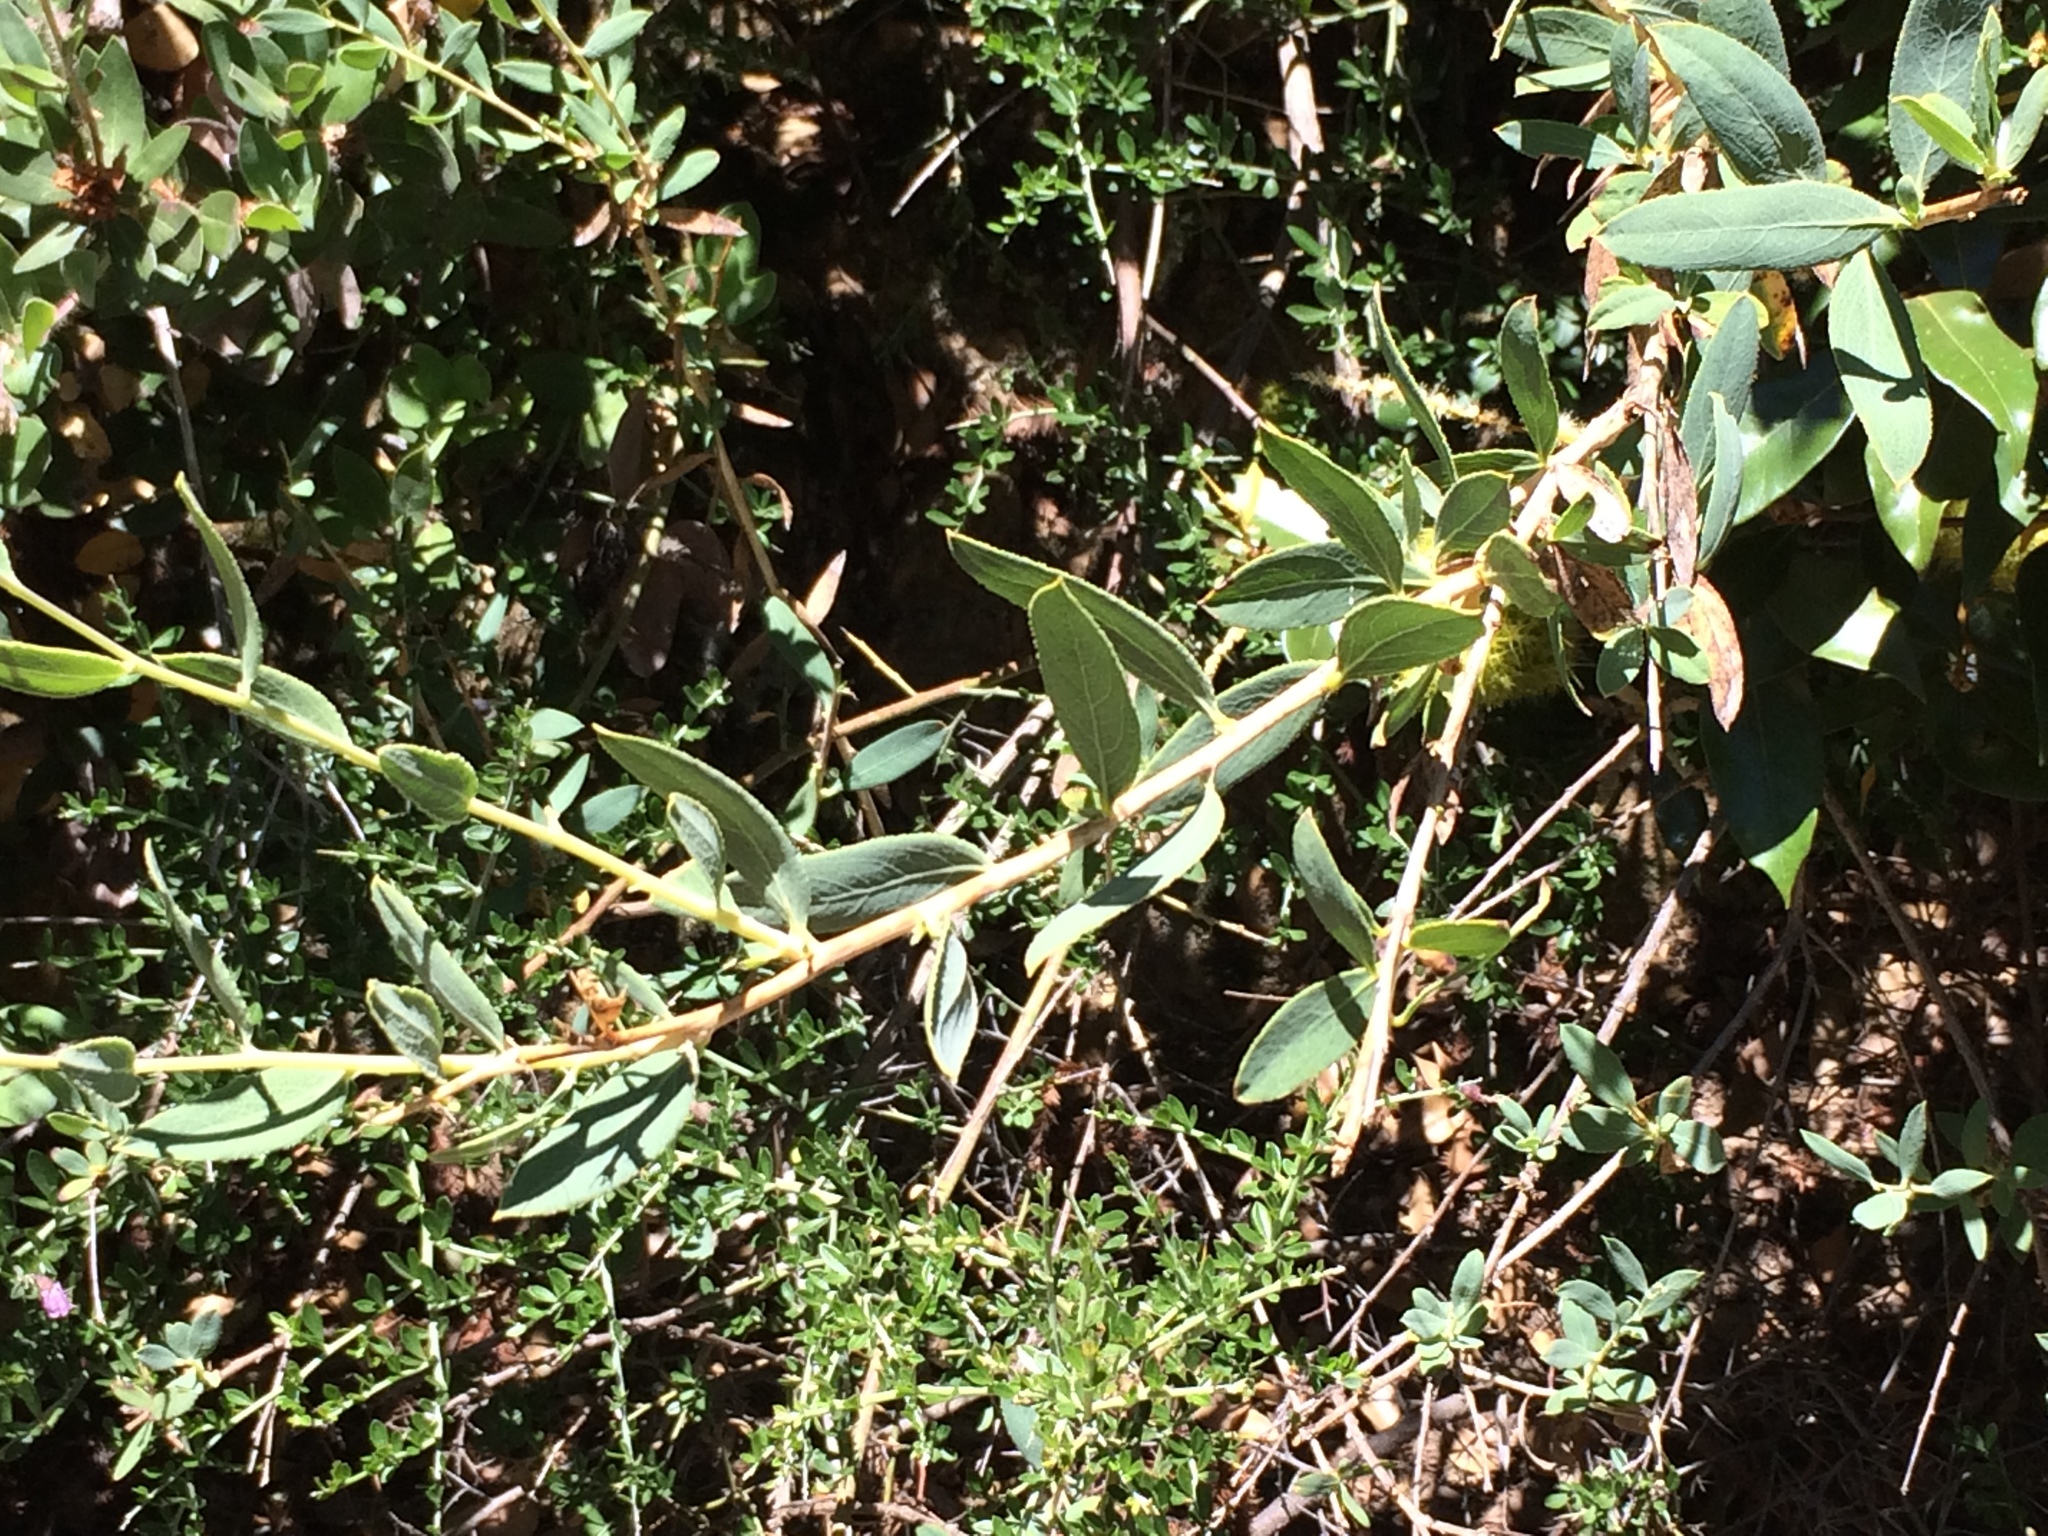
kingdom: Plantae
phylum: Tracheophyta
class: Magnoliopsida
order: Ranunculales
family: Papaveraceae
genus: Dendromecon
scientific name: Dendromecon rigida
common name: Tree poppy
